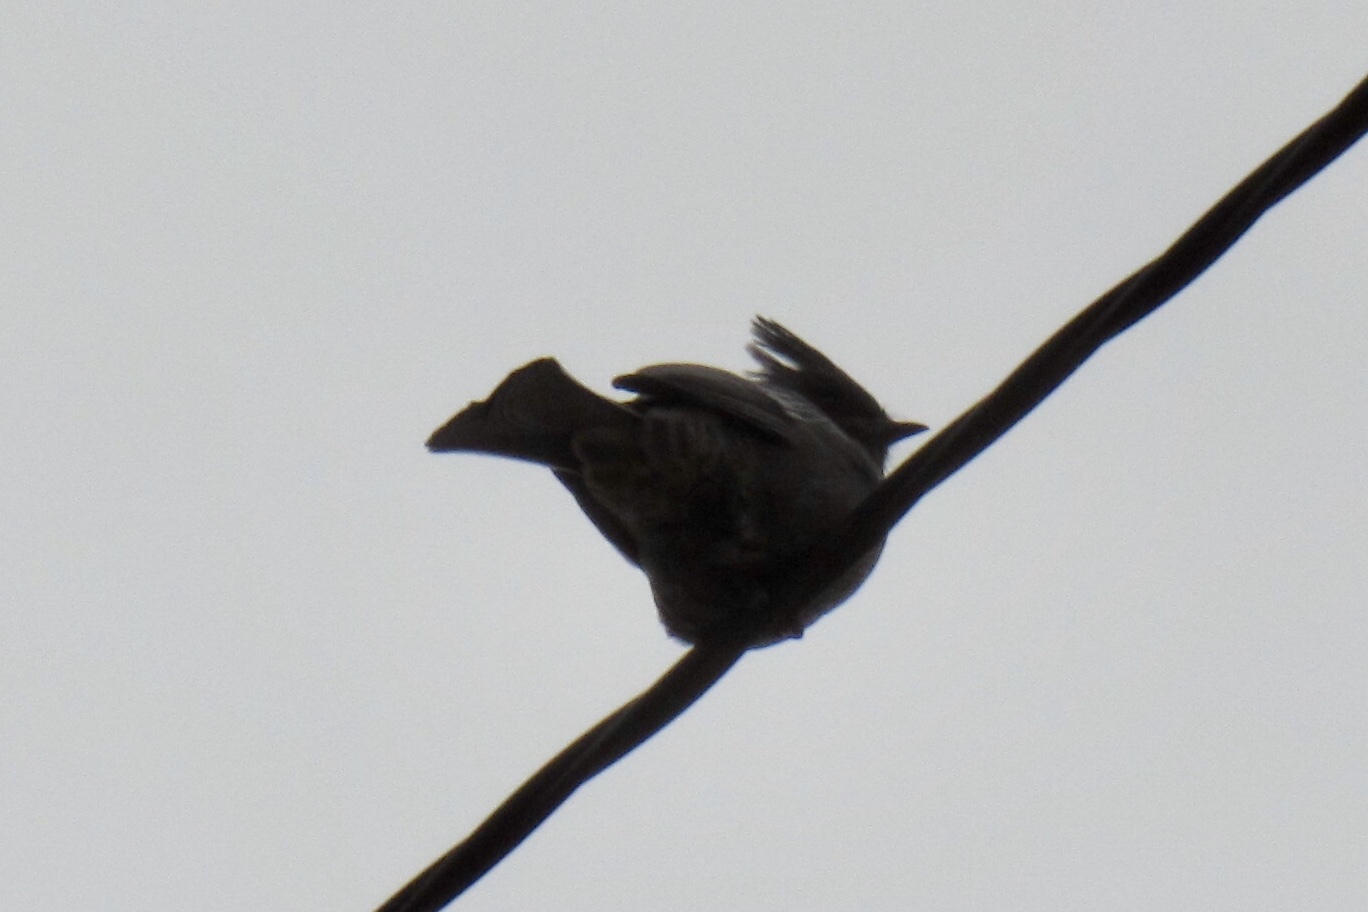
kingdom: Animalia
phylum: Chordata
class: Aves
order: Passeriformes
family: Ptilogonatidae
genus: Phainopepla
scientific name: Phainopepla nitens
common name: Phainopepla
